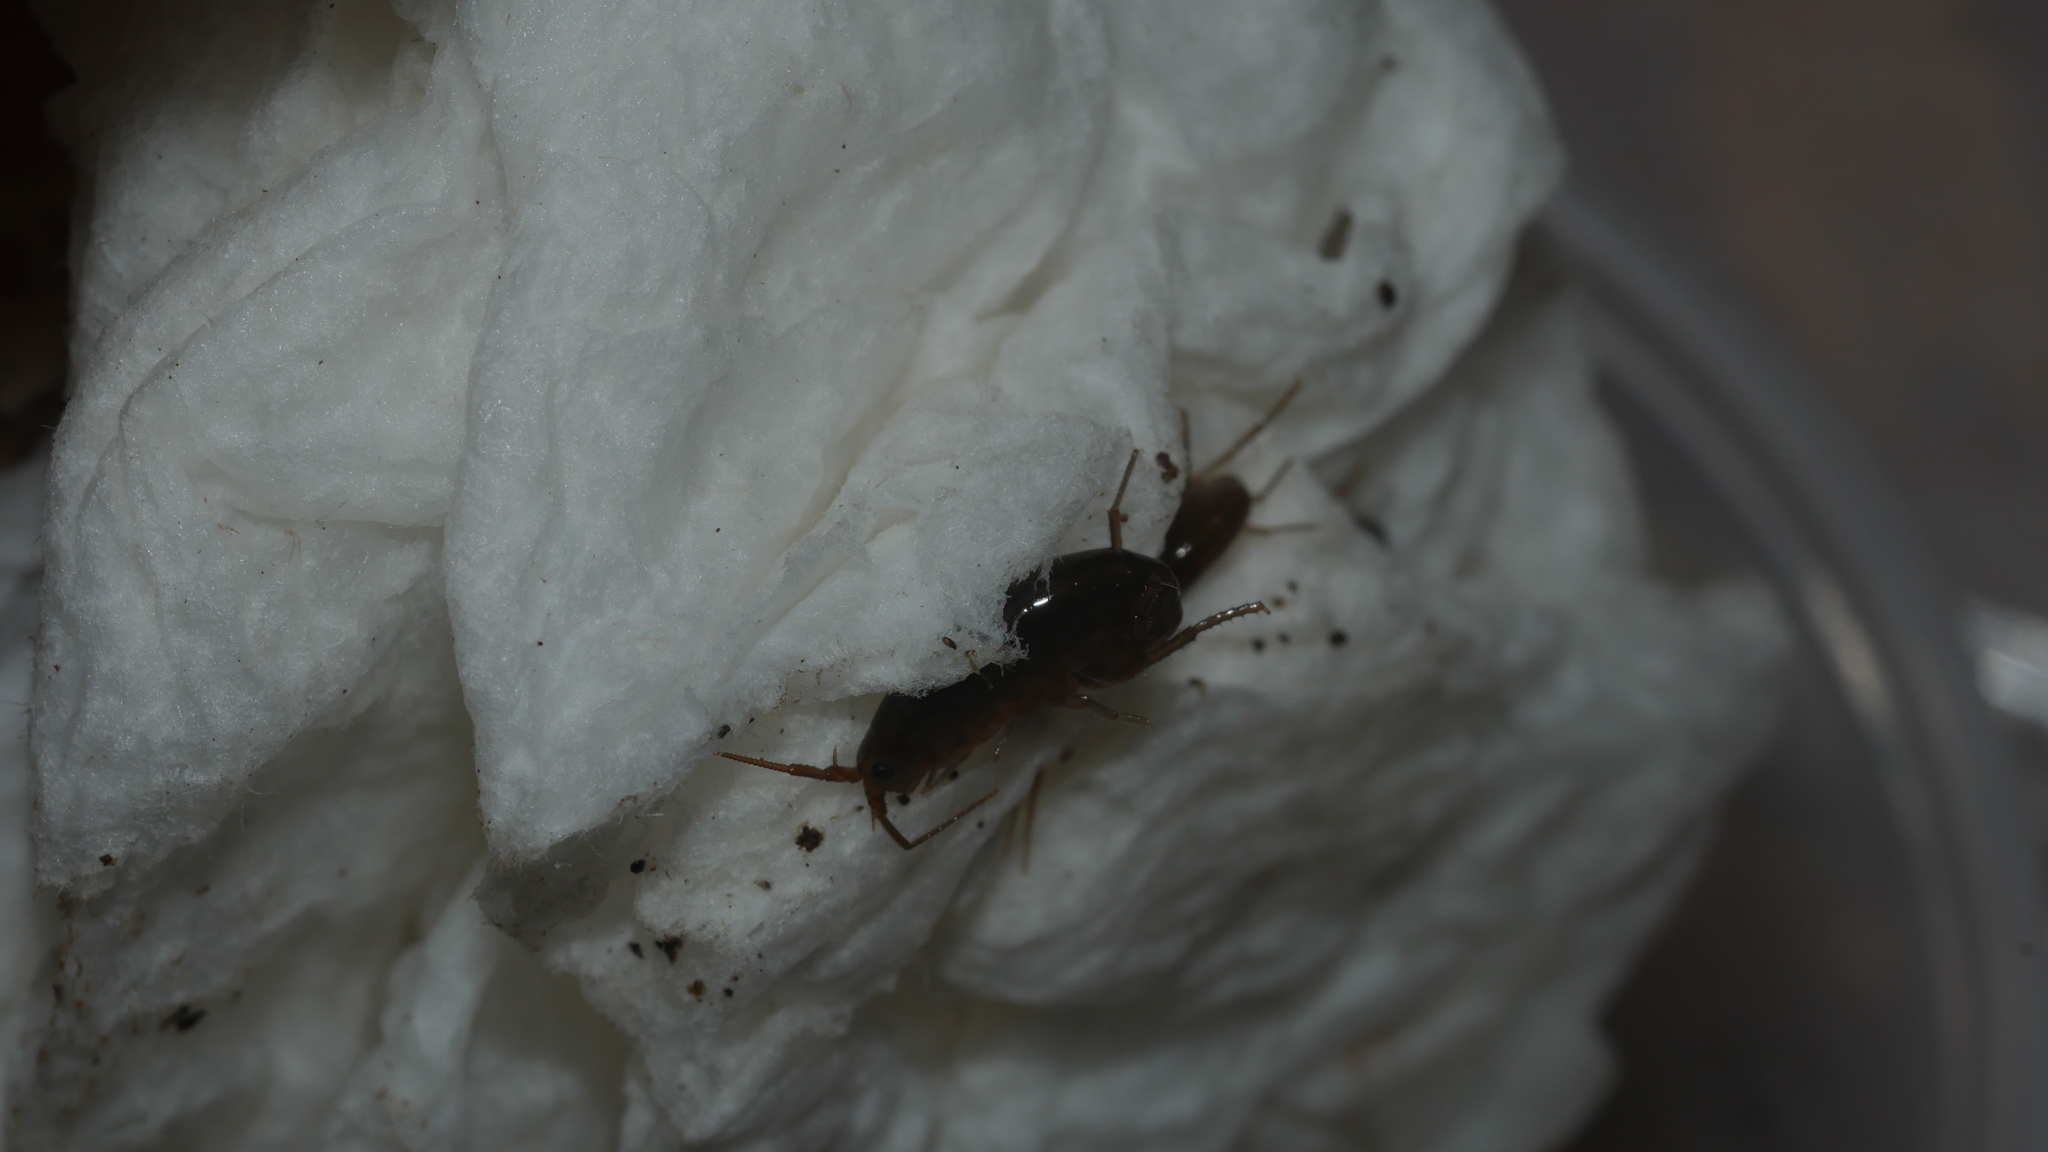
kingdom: Animalia
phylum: Arthropoda
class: Malacostraca
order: Amphipoda
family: Talitridae
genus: Speziorchestia
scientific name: Speziorchestia grillus
